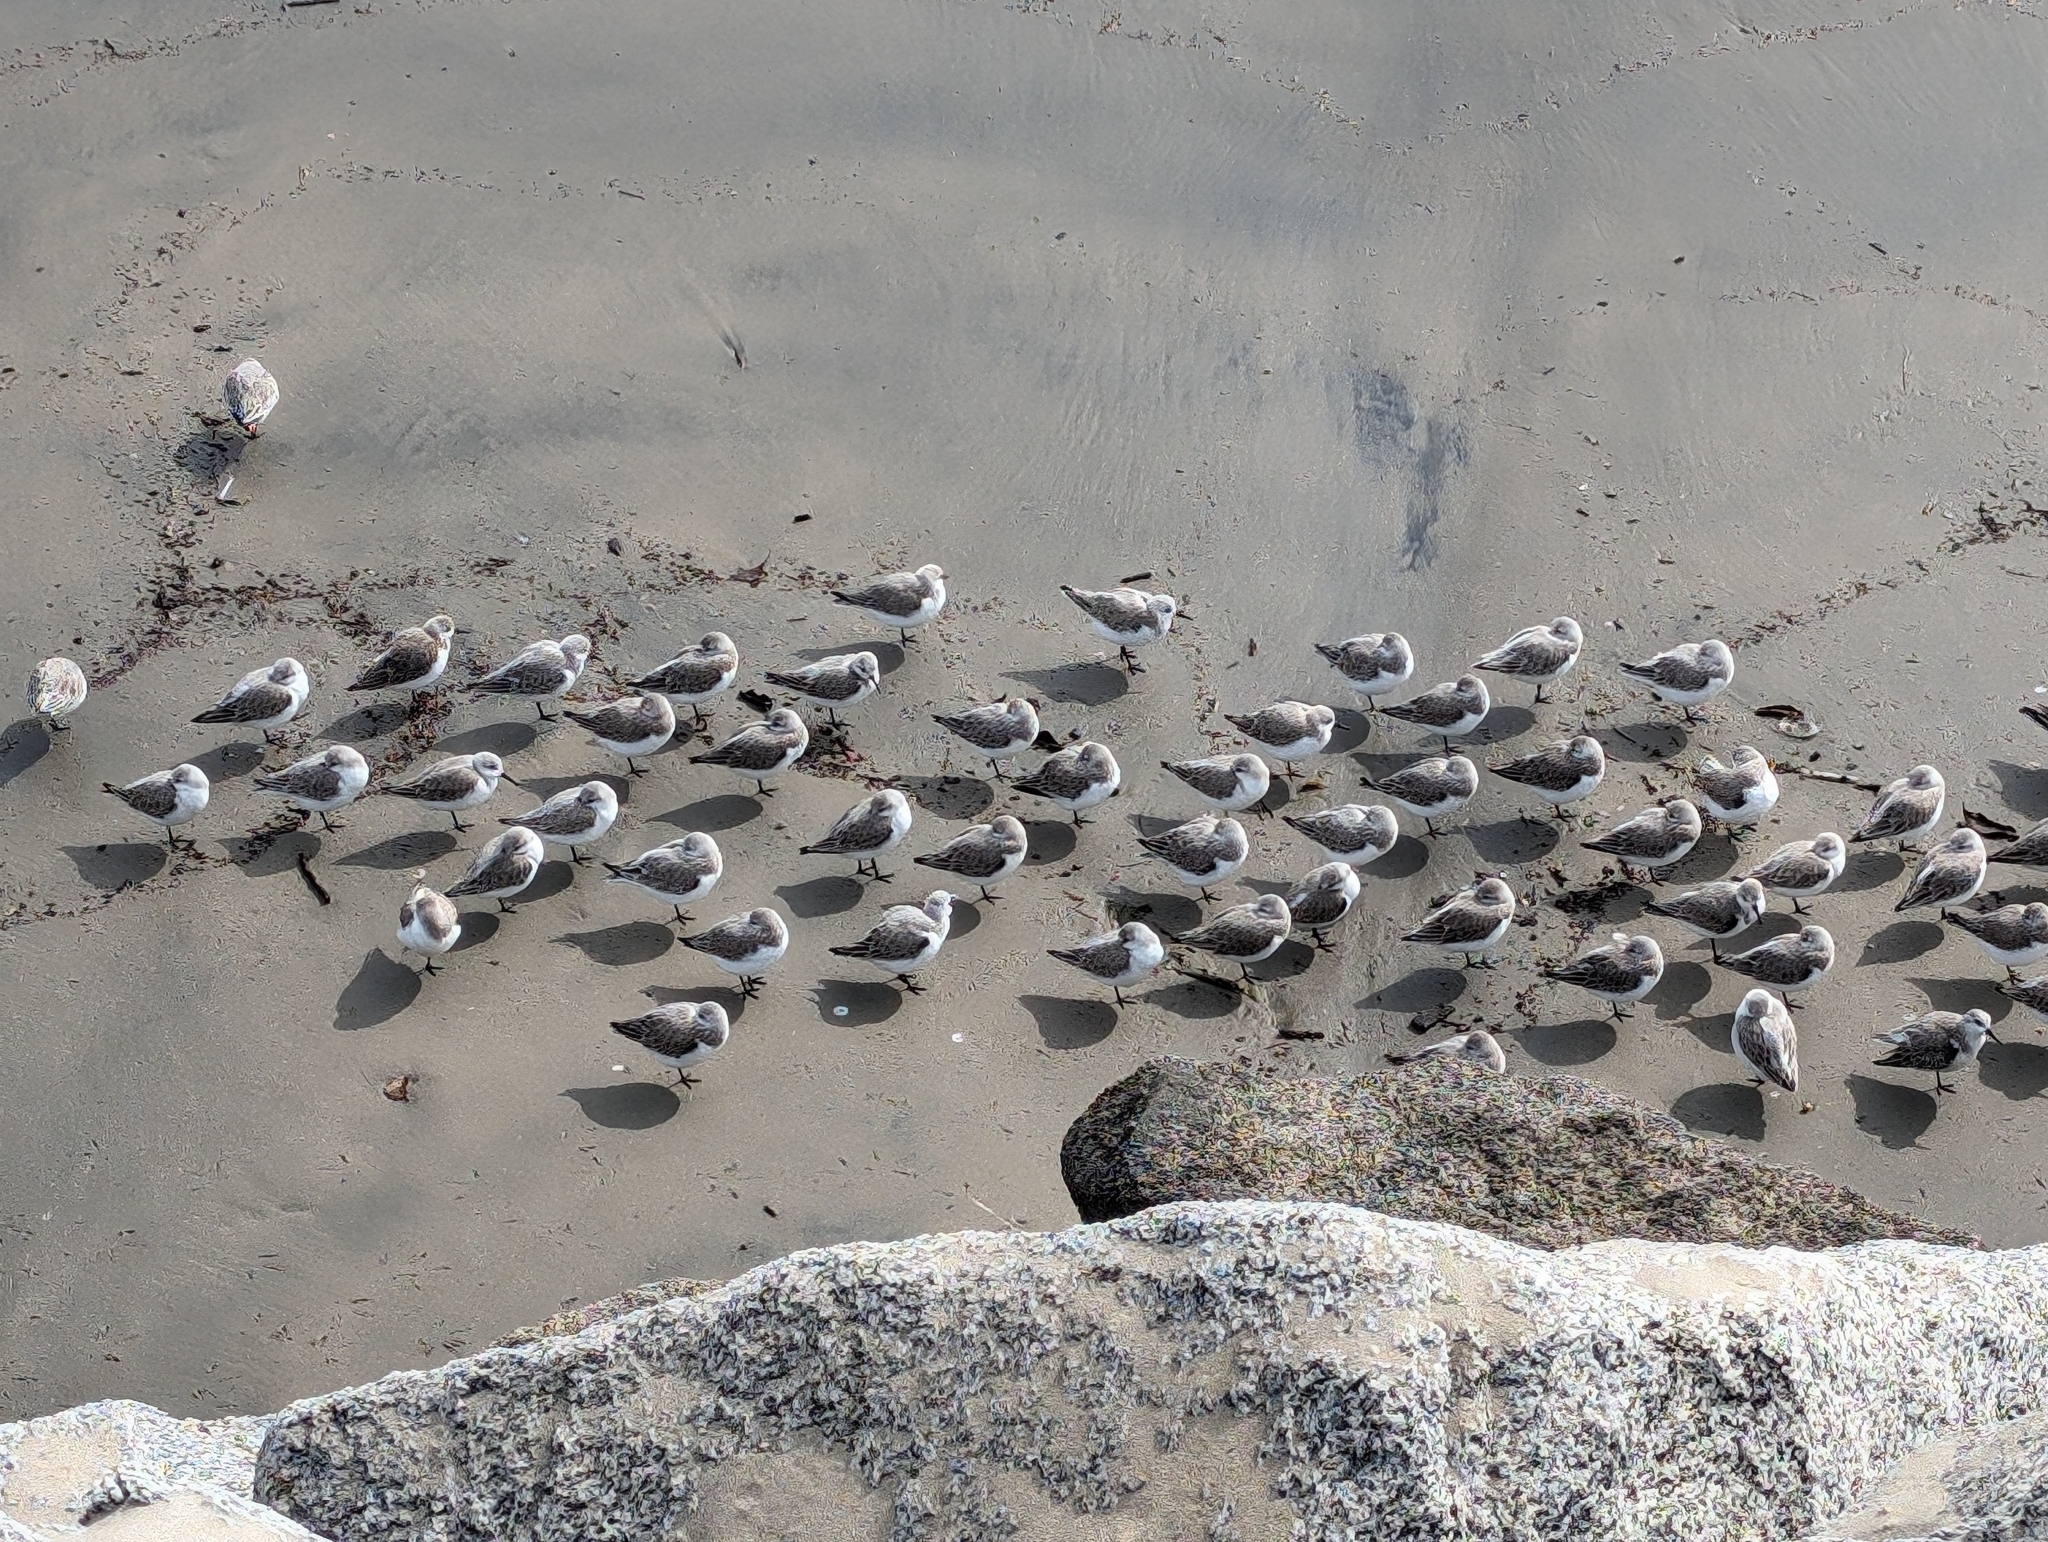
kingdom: Animalia
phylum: Chordata
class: Aves
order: Charadriiformes
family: Scolopacidae
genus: Calidris
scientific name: Calidris alba
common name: Sanderling
